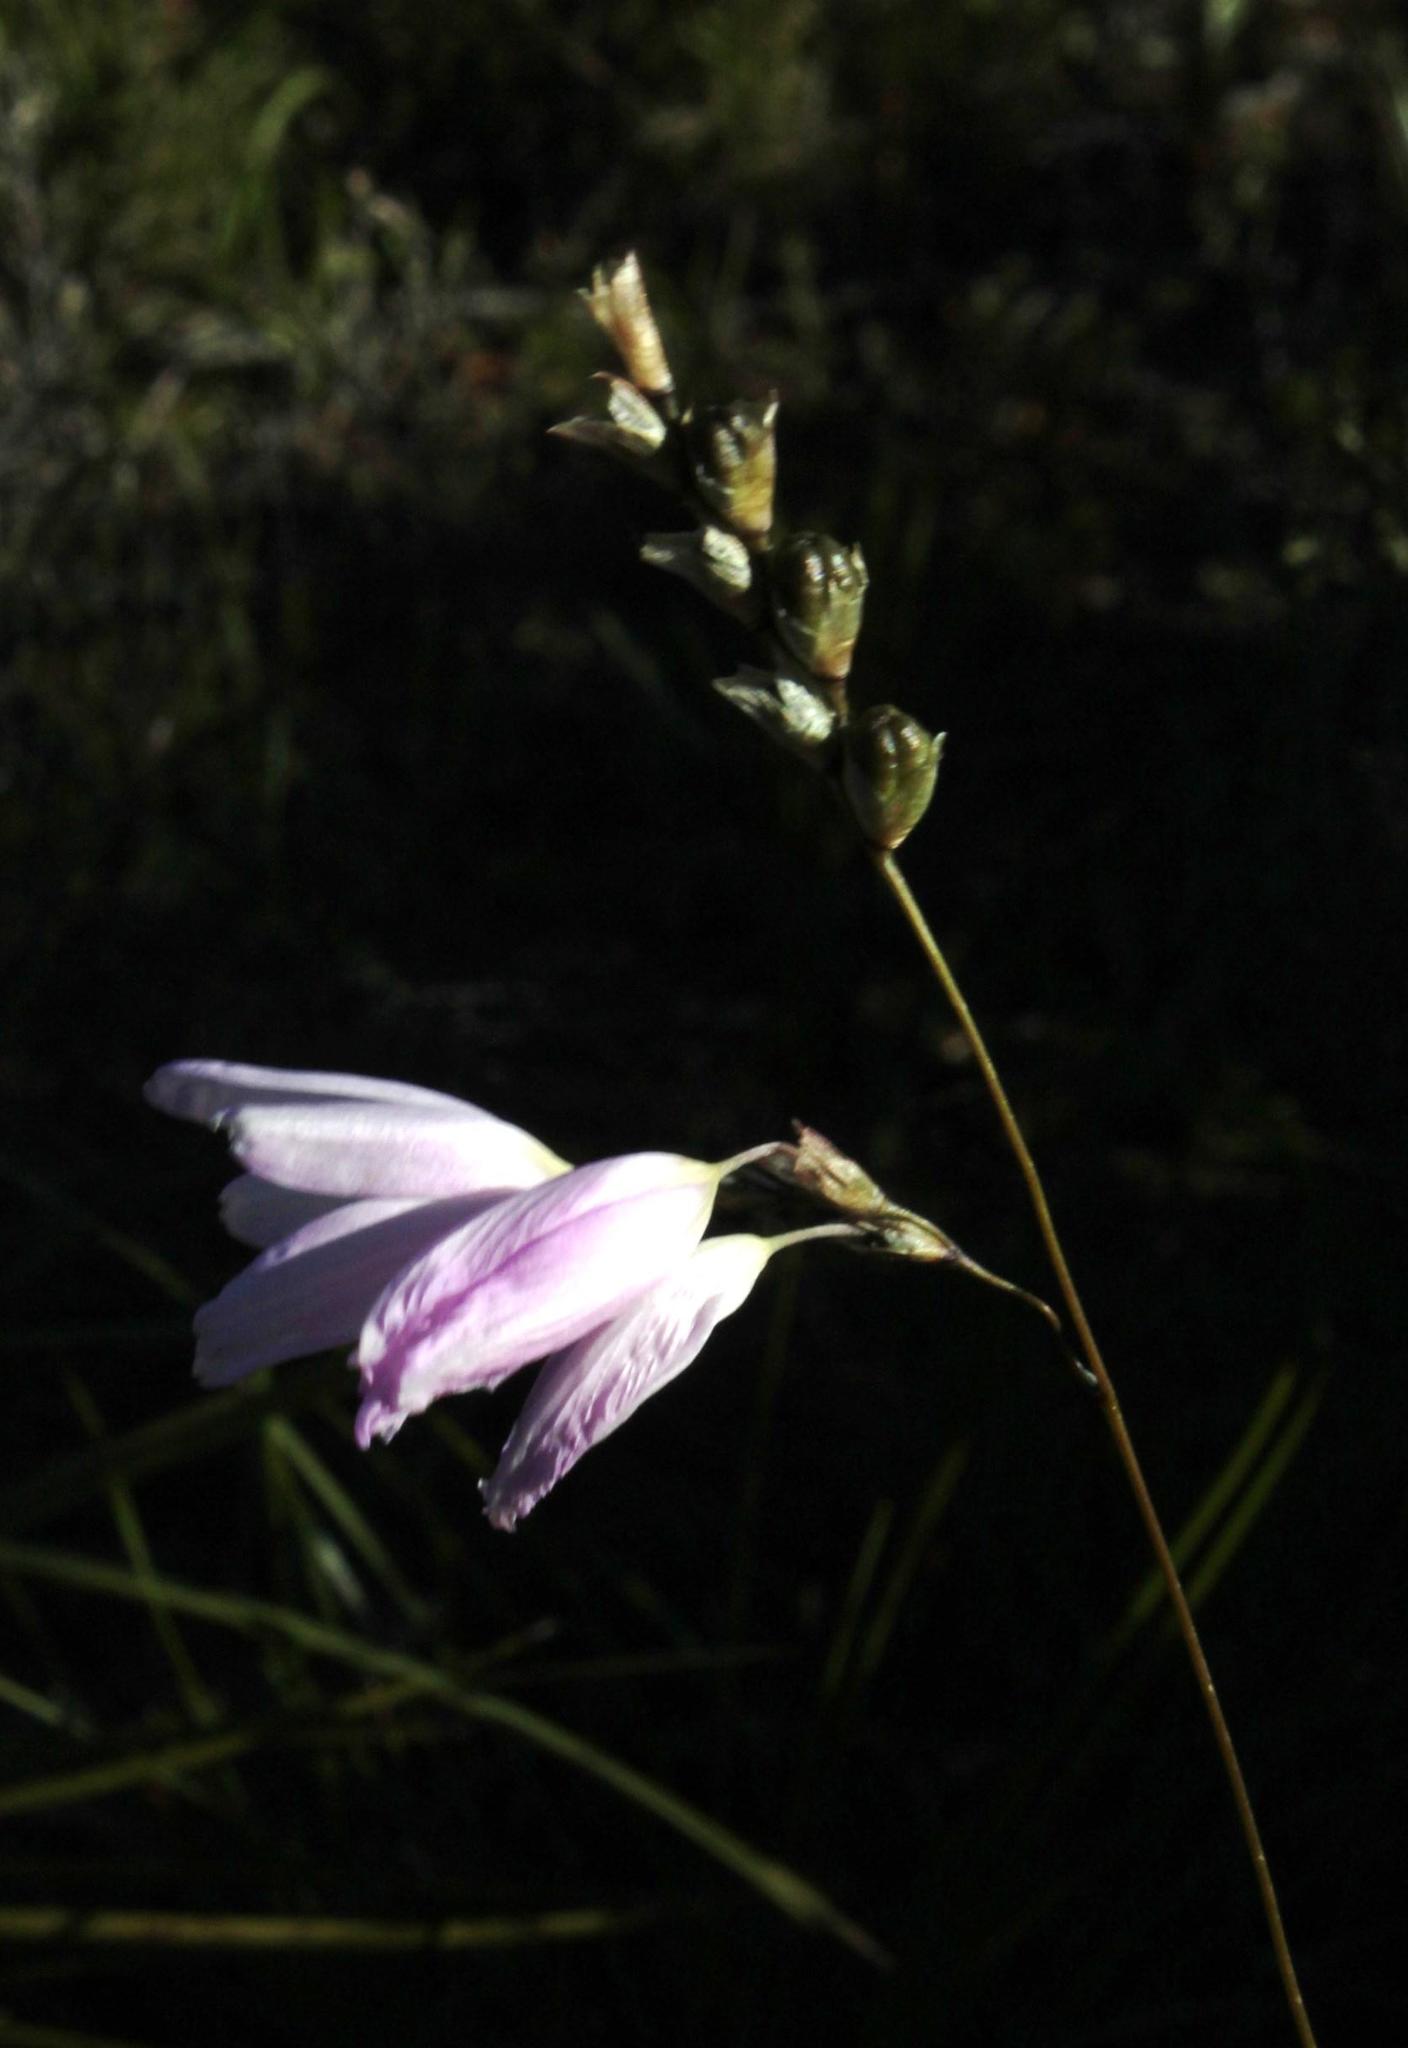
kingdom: Plantae
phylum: Tracheophyta
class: Liliopsida
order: Asparagales
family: Iridaceae
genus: Ixia
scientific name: Ixia orientalis
